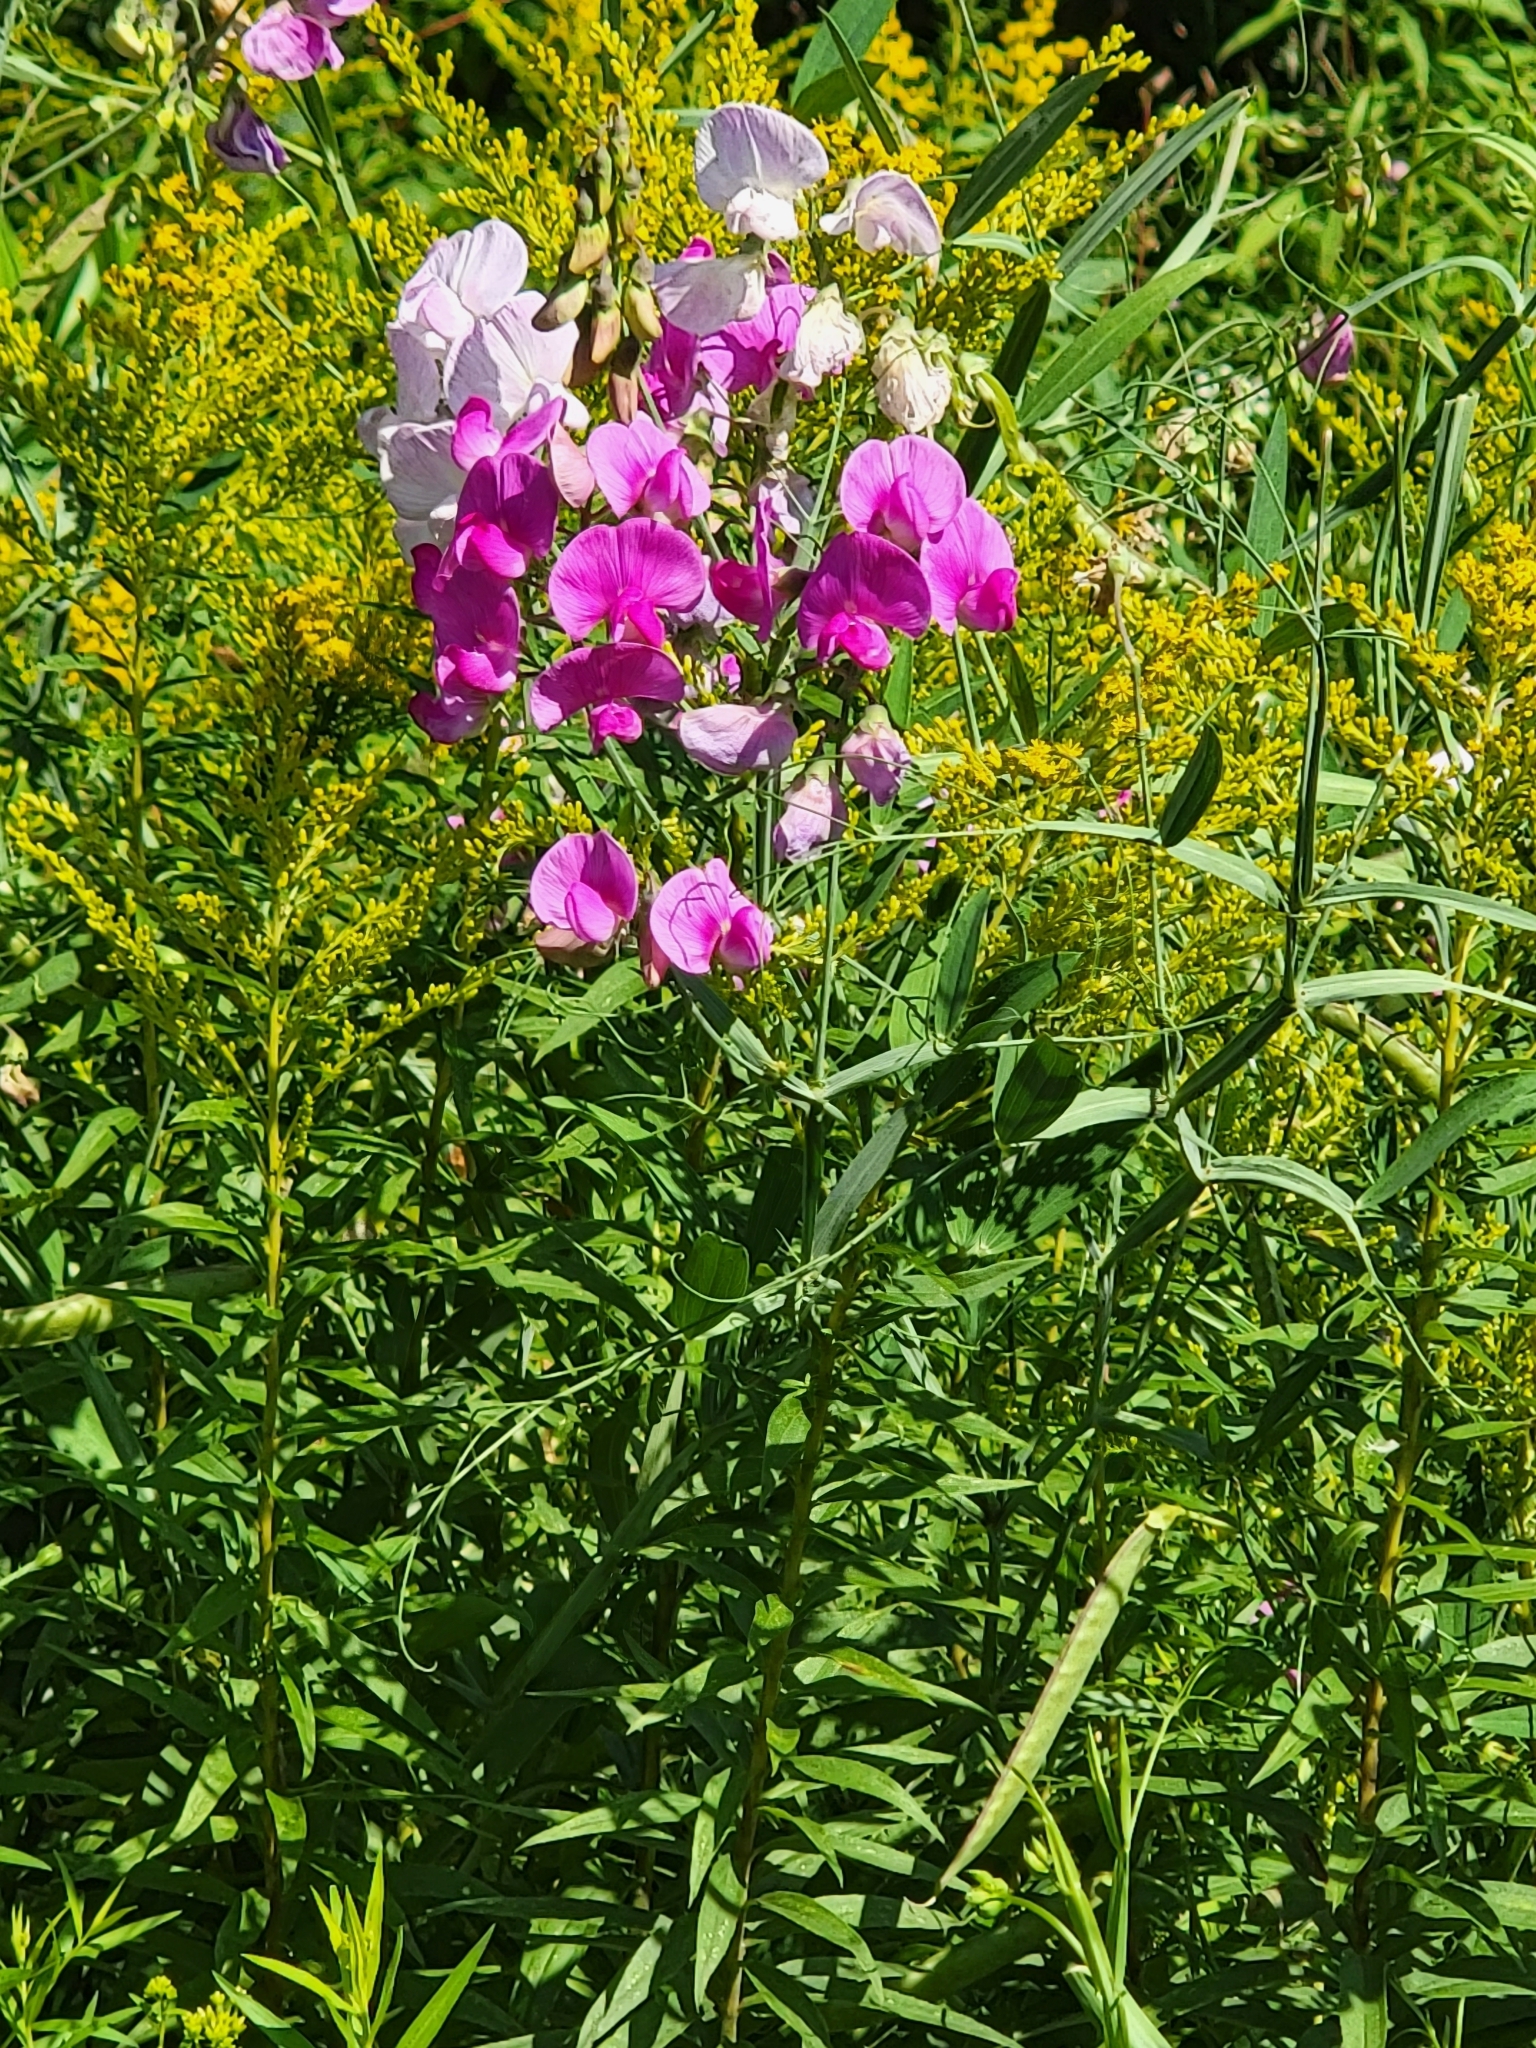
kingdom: Plantae
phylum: Tracheophyta
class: Magnoliopsida
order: Fabales
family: Fabaceae
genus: Lathyrus
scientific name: Lathyrus latifolius
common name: Perennial pea
